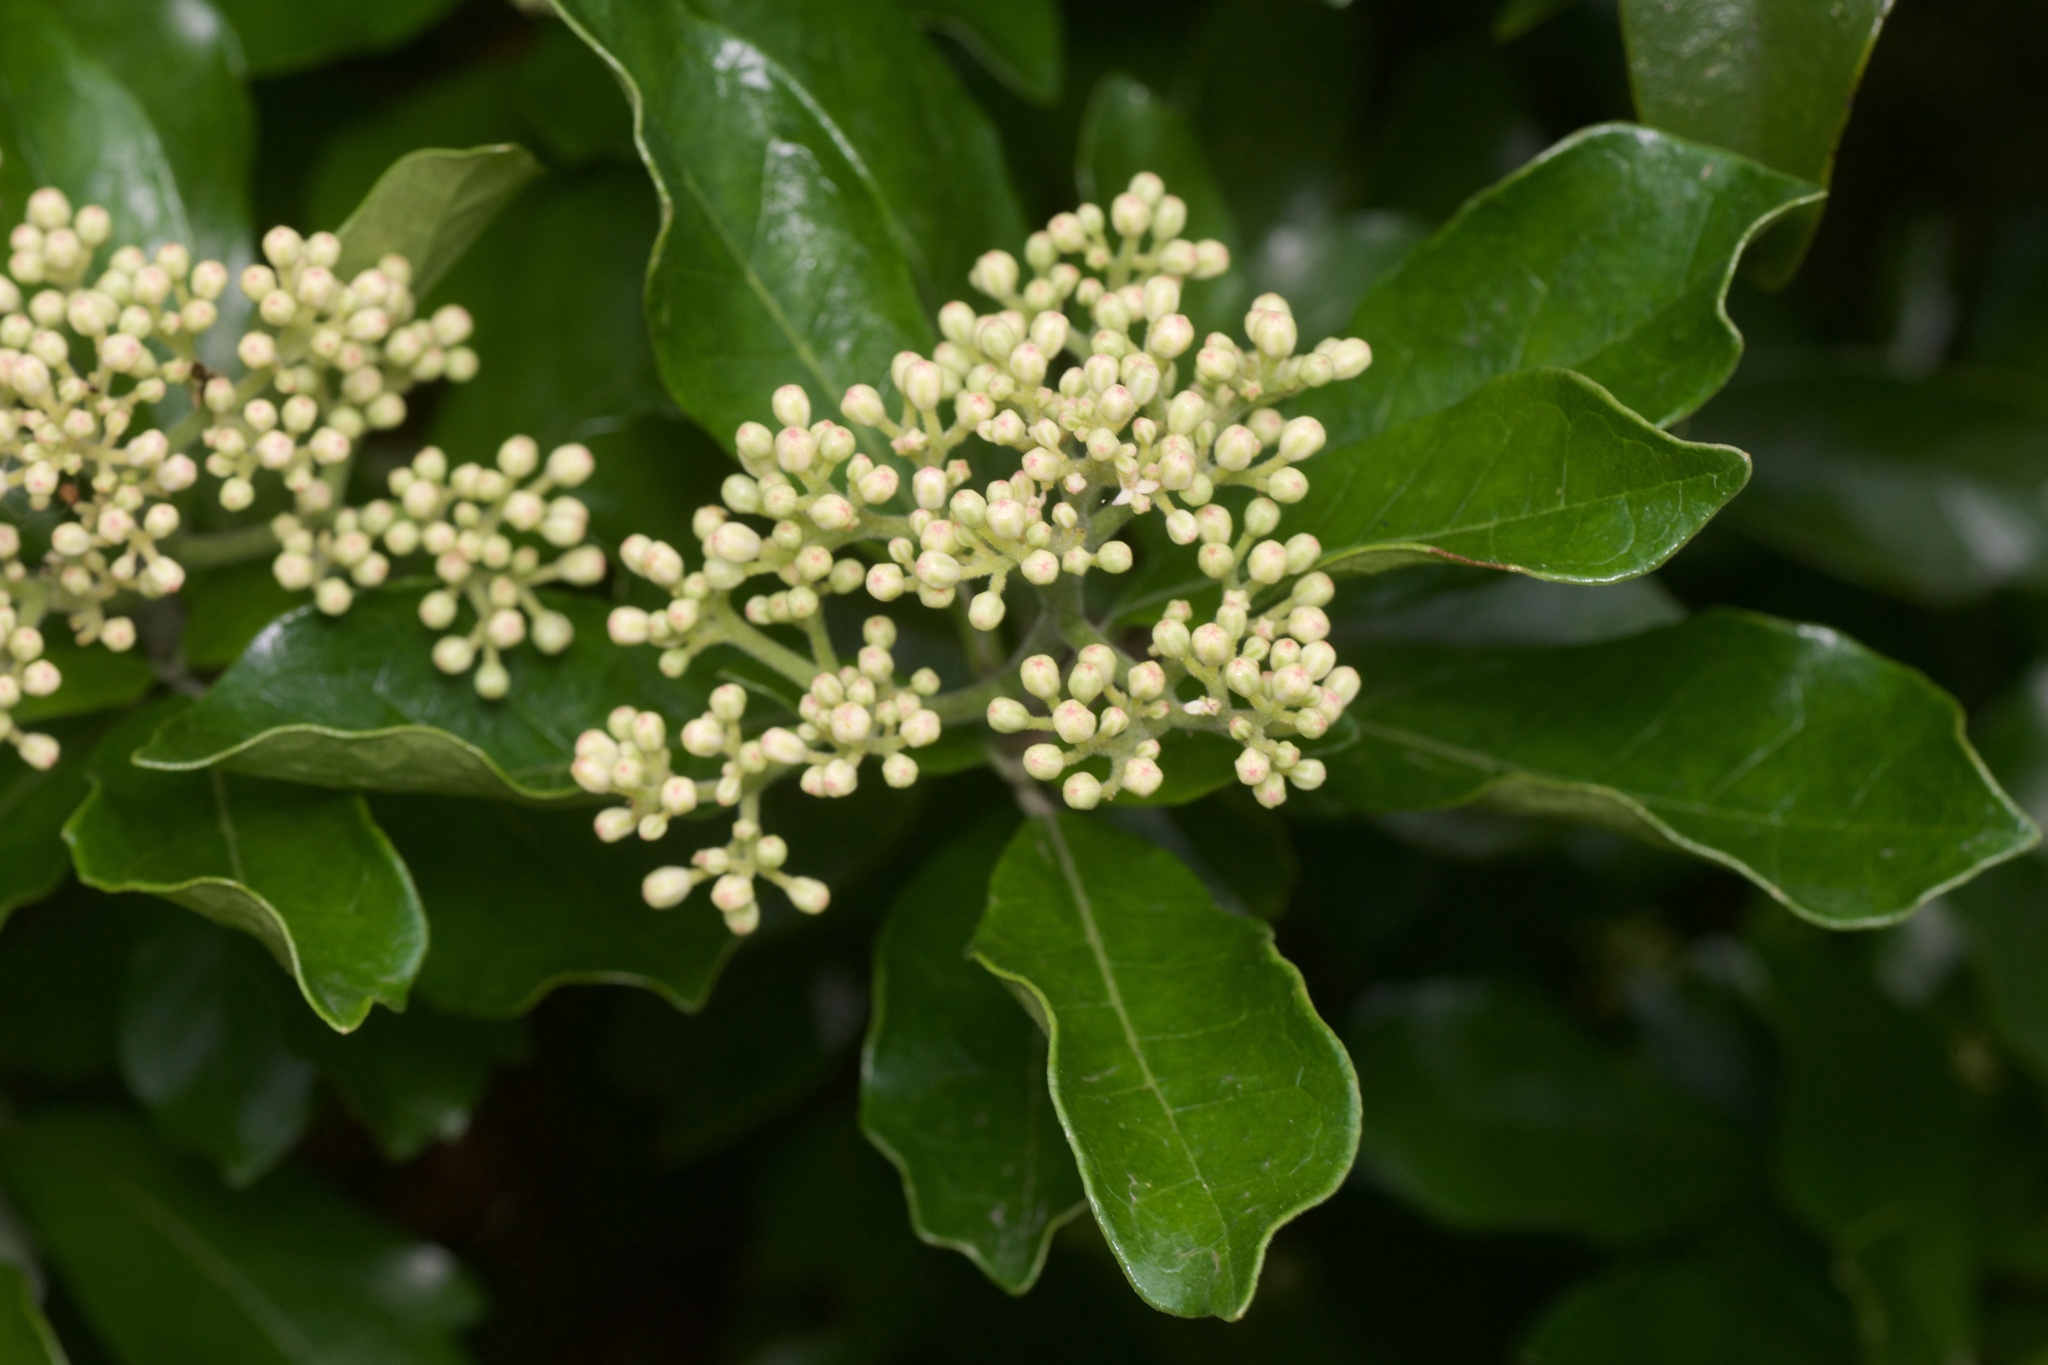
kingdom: Plantae
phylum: Tracheophyta
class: Magnoliopsida
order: Apiales
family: Pennantiaceae
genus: Pennantia
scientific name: Pennantia corymbosa
